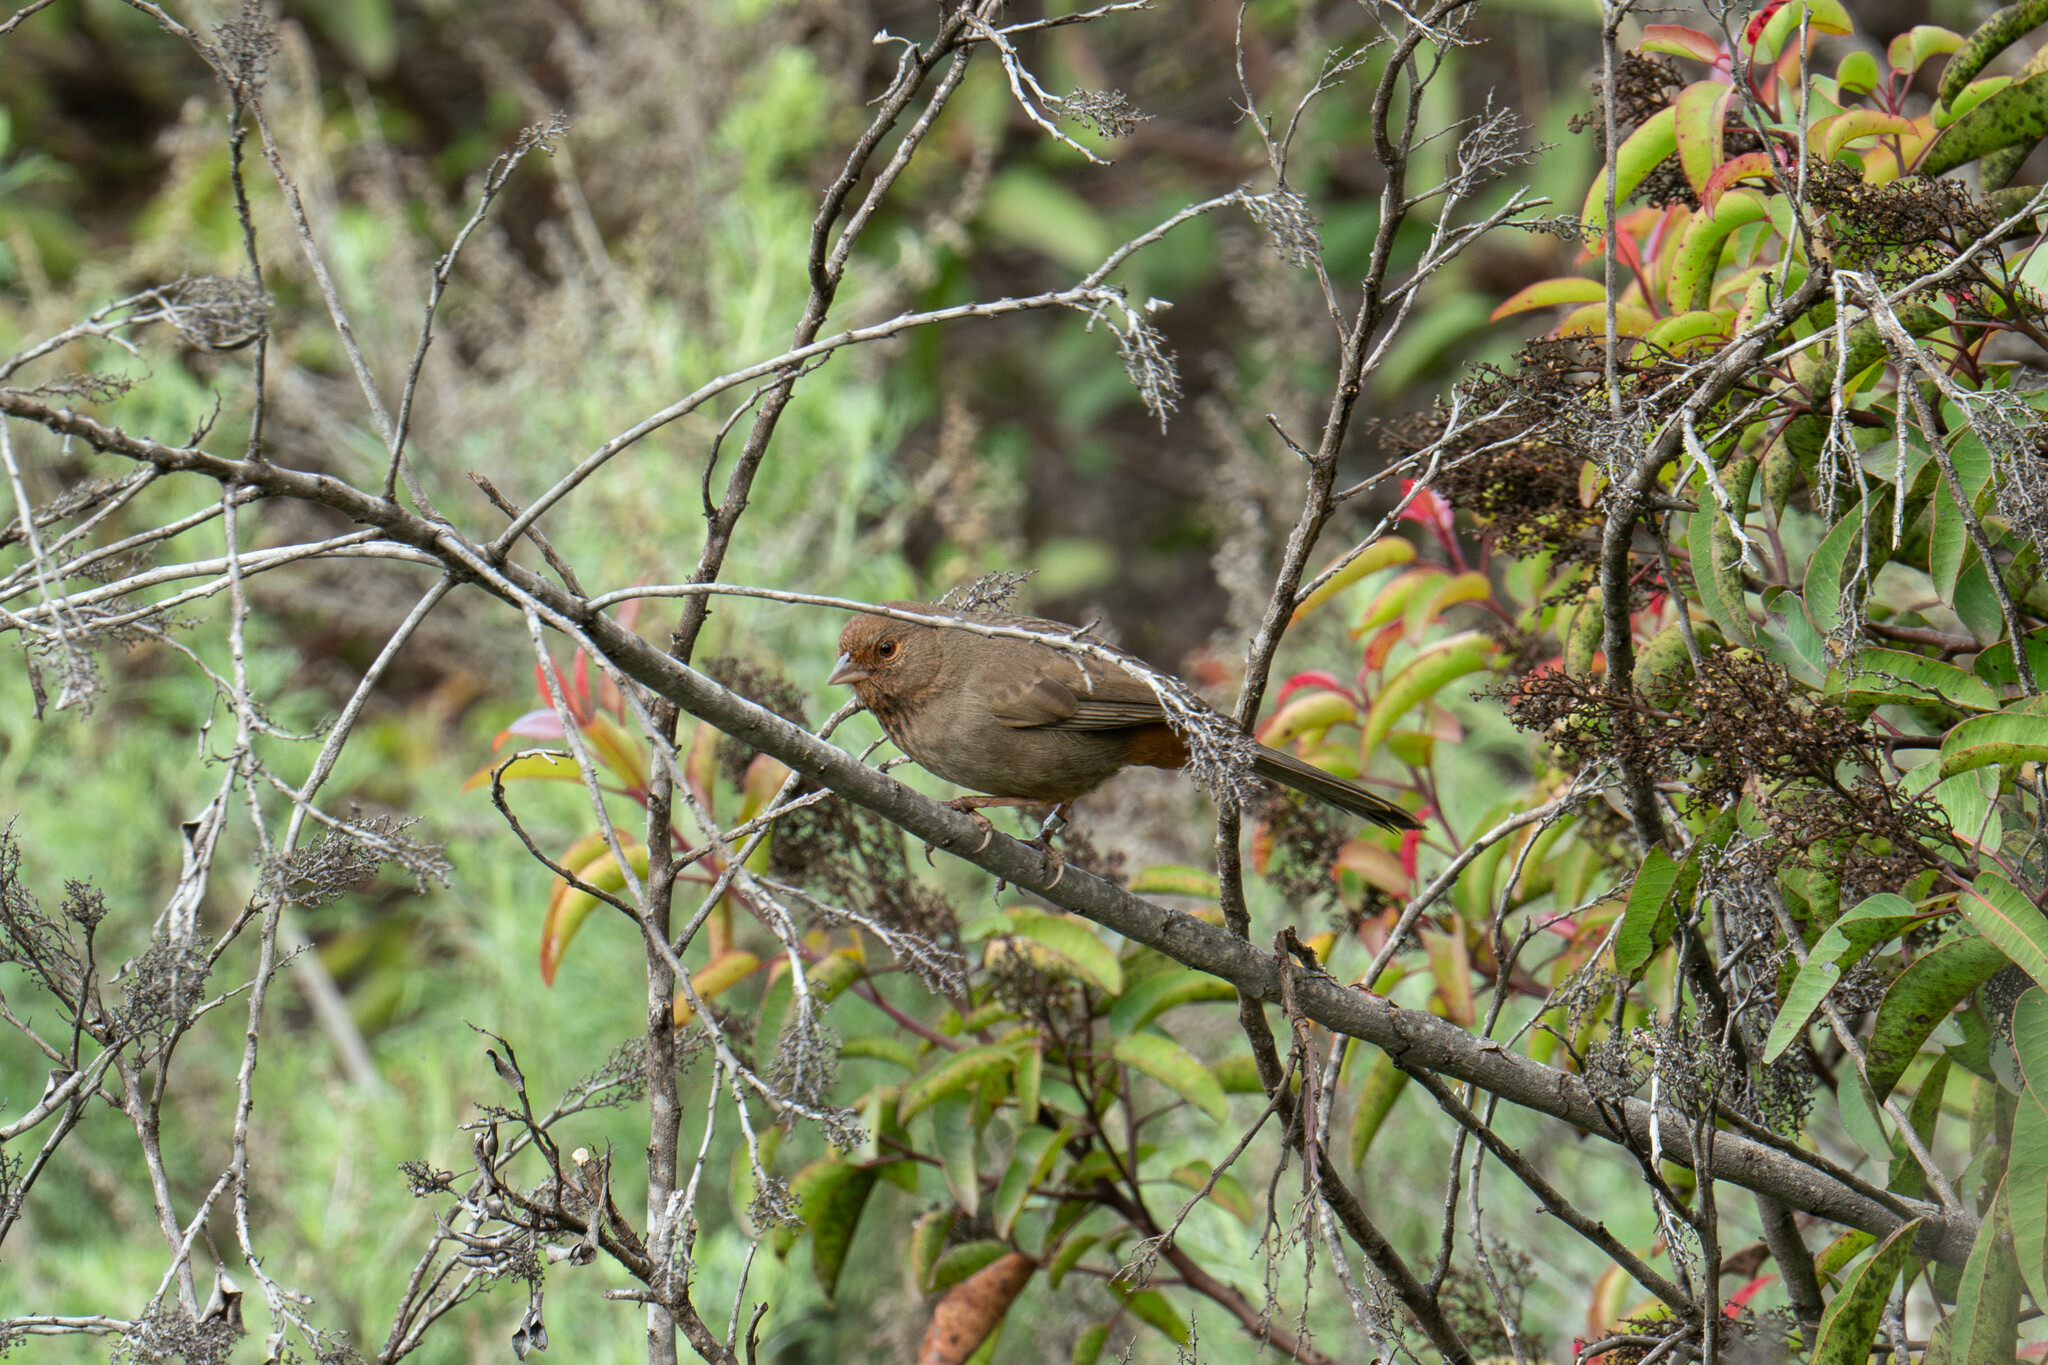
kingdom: Animalia
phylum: Chordata
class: Aves
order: Passeriformes
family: Passerellidae
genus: Melozone
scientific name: Melozone crissalis
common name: California towhee
